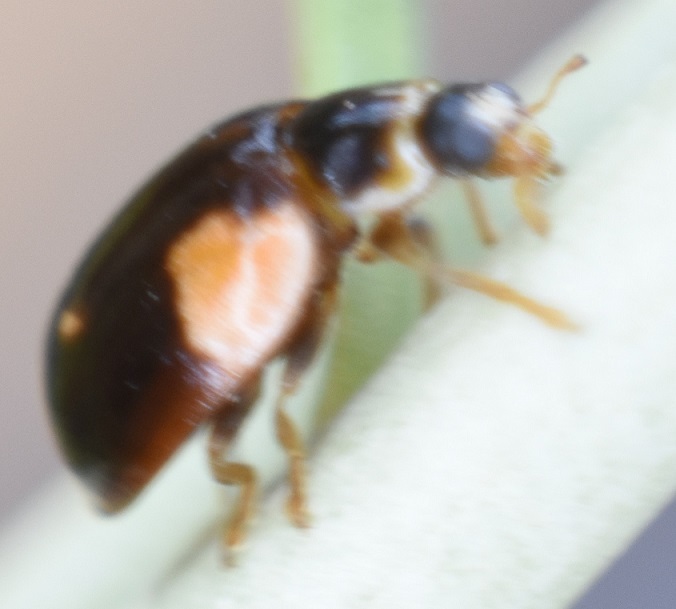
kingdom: Animalia
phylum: Arthropoda
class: Insecta
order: Coleoptera
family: Coccinellidae
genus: Adalia
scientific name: Adalia bipunctata
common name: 2-spot ladybird
